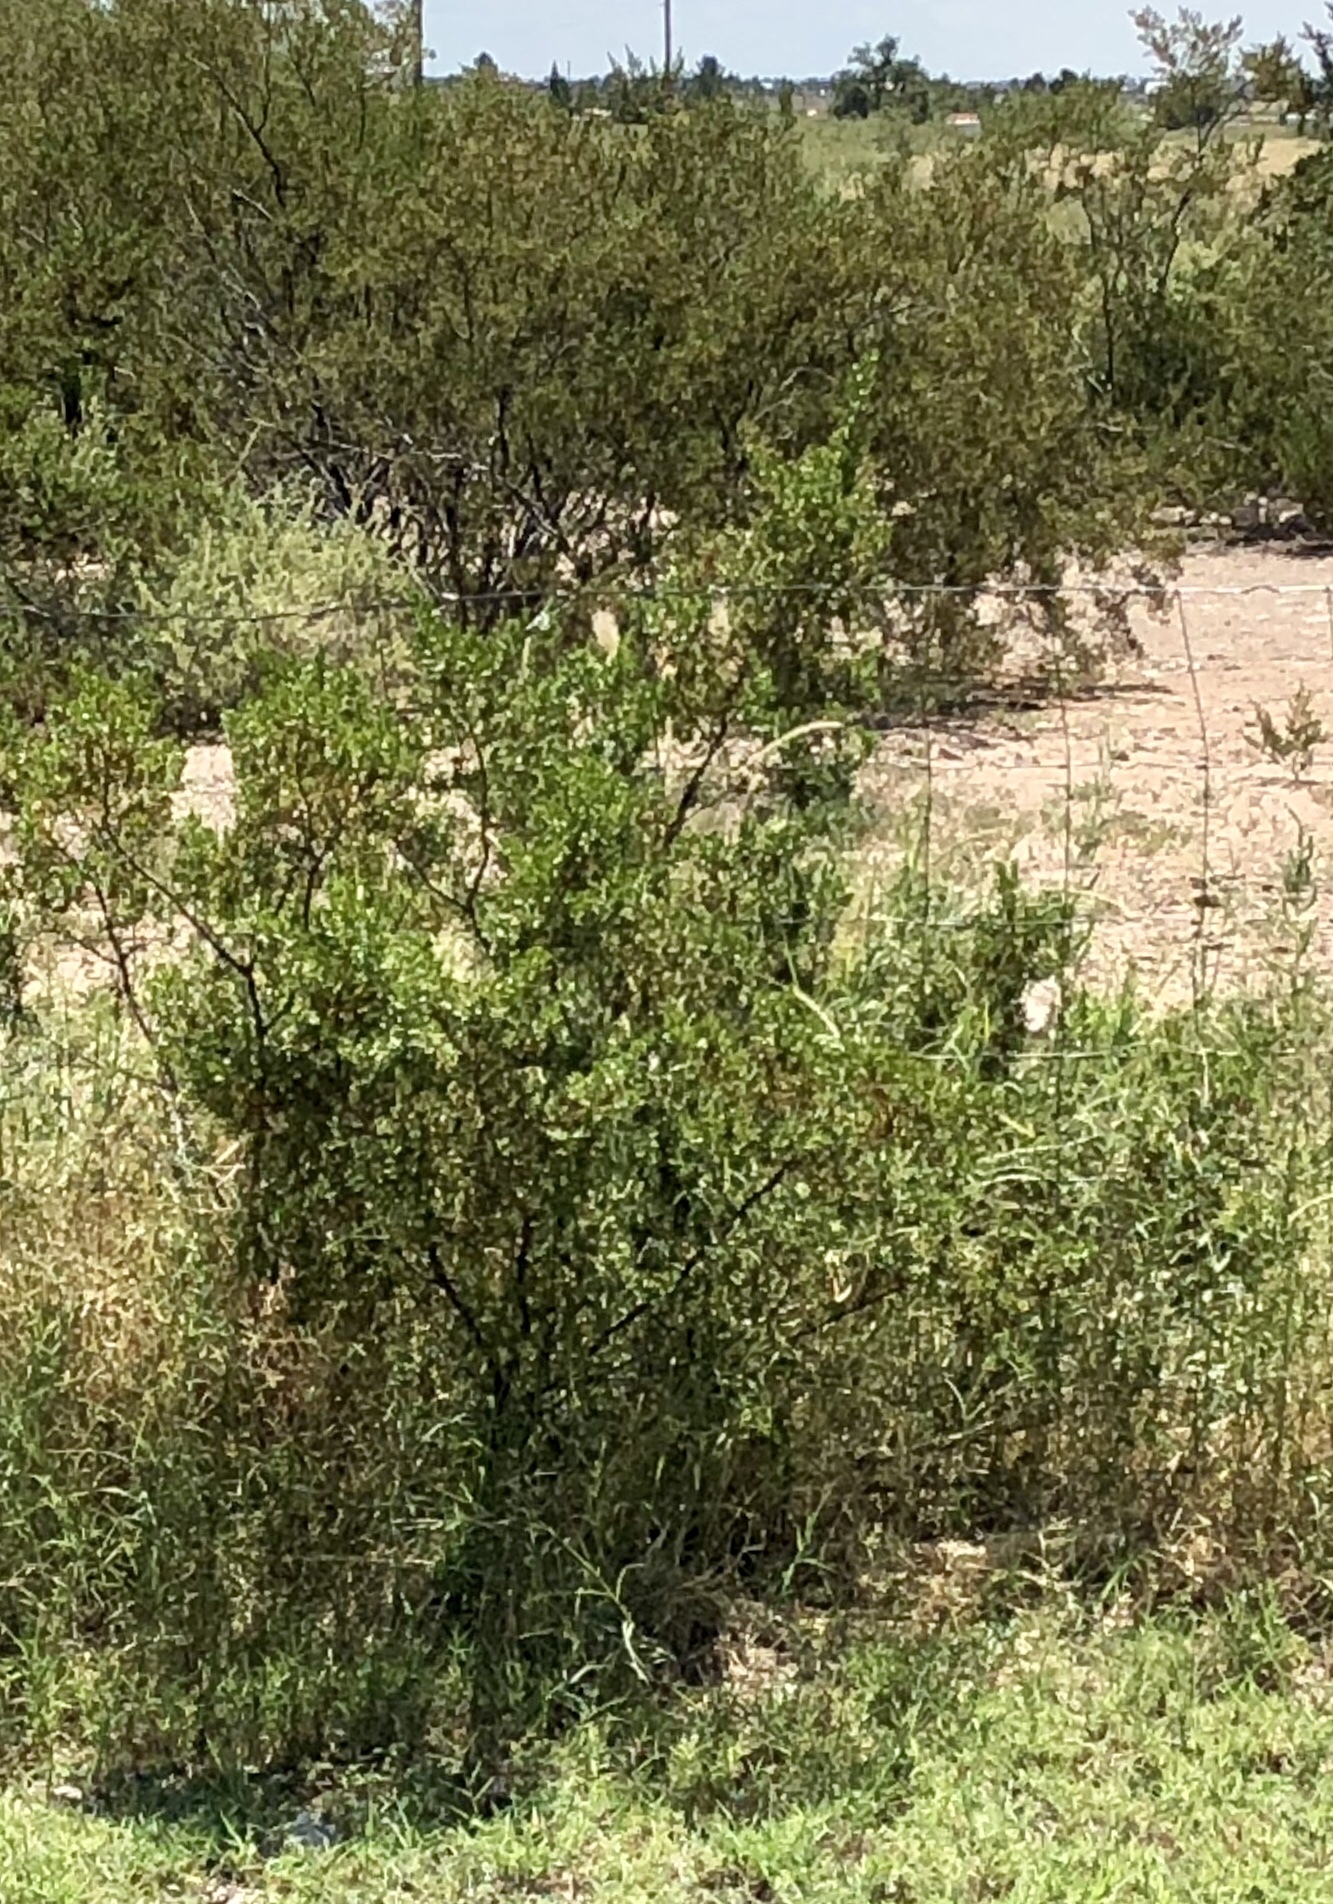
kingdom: Plantae
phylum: Tracheophyta
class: Magnoliopsida
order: Zygophyllales
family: Zygophyllaceae
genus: Larrea
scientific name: Larrea tridentata
